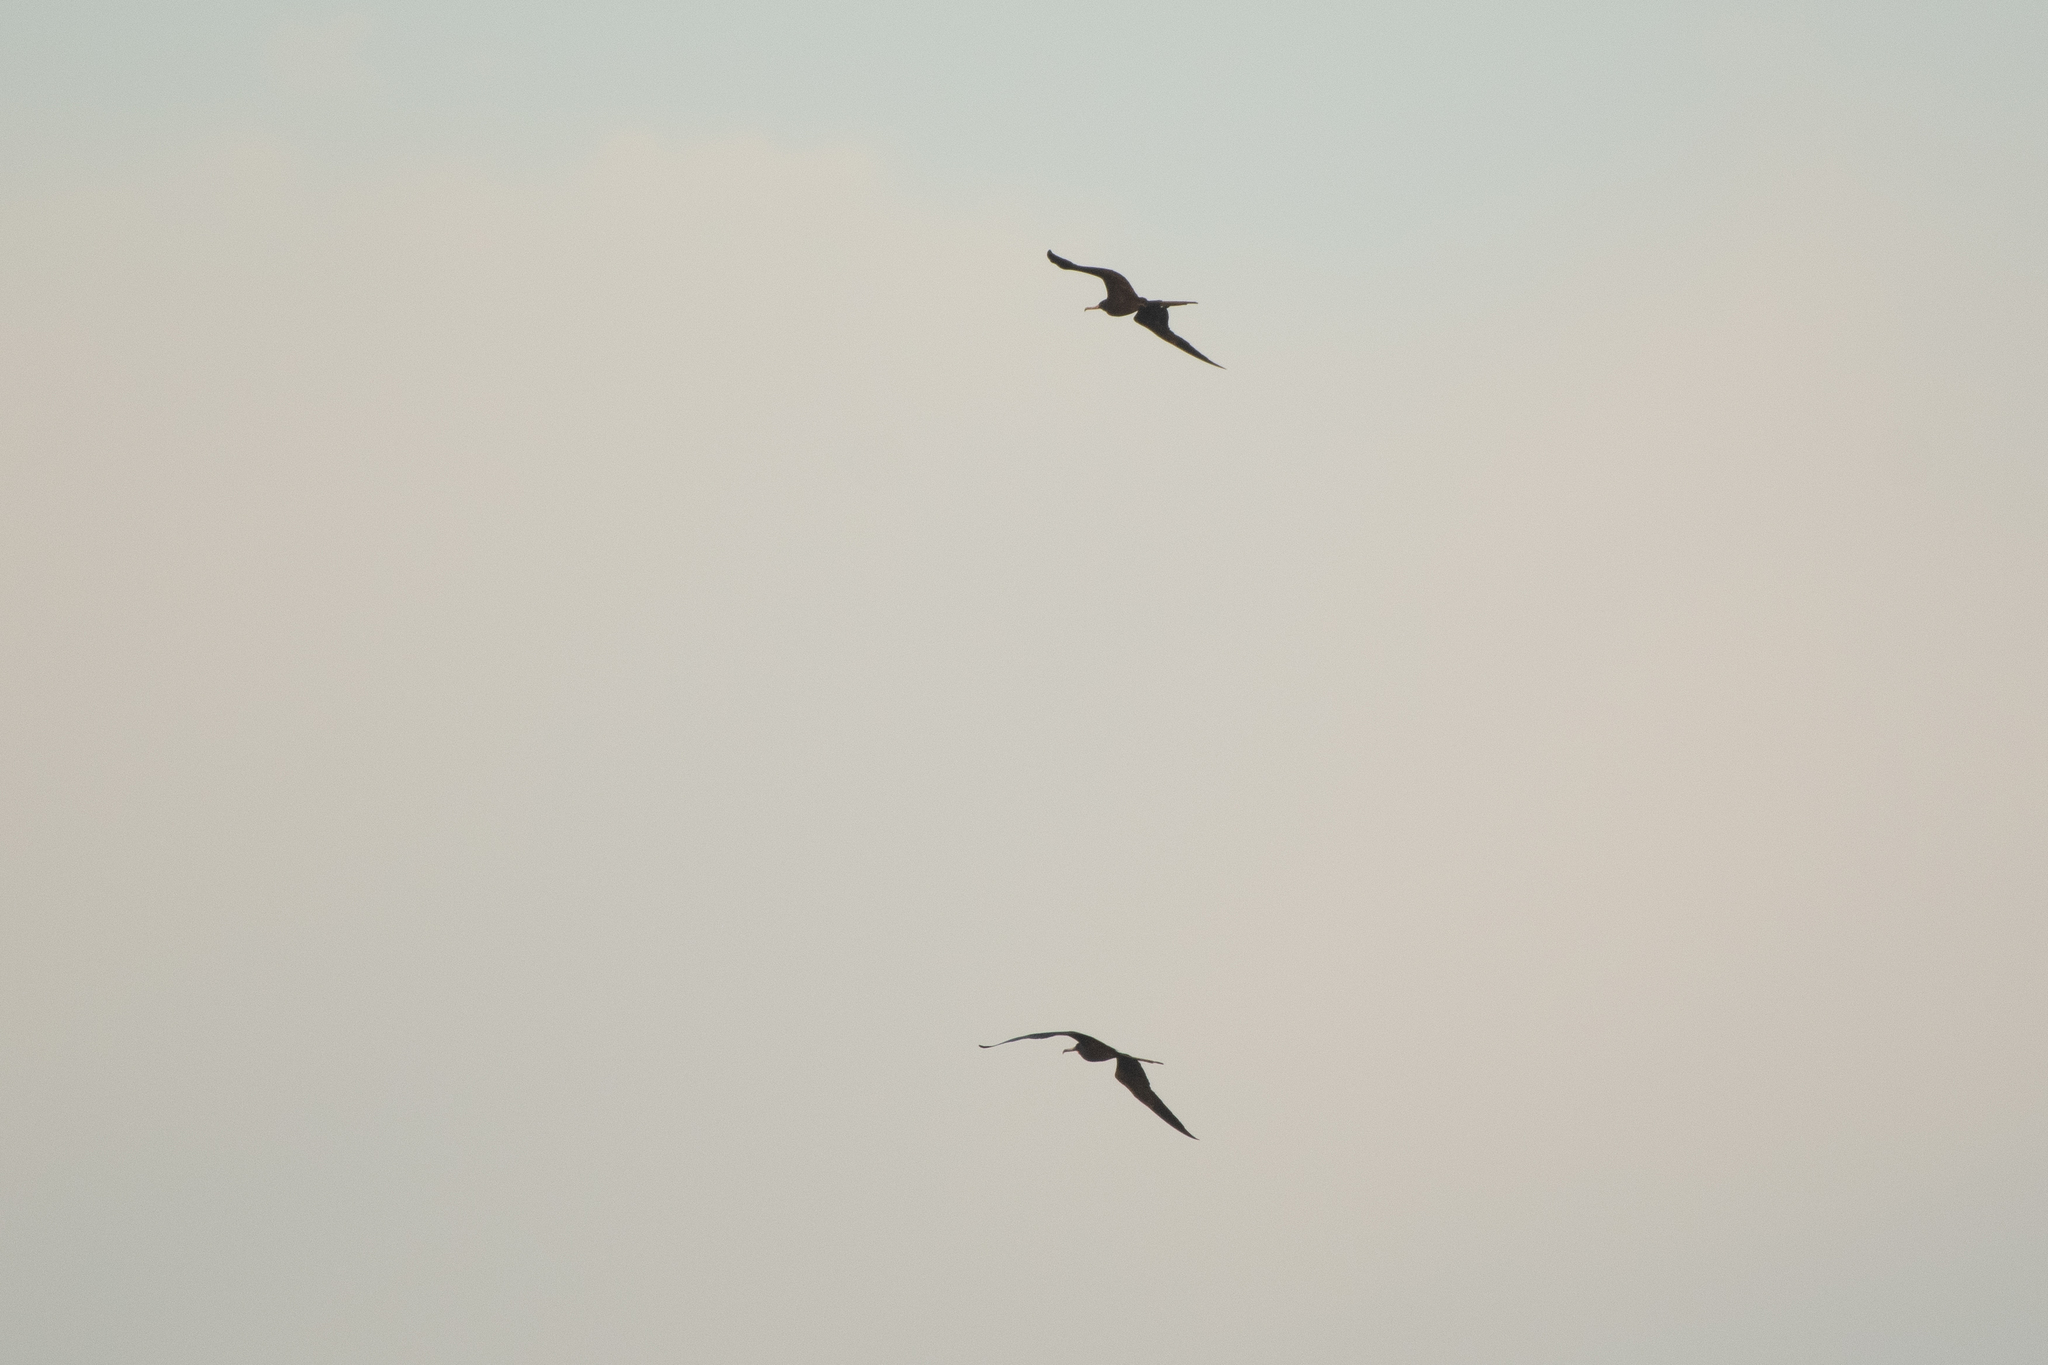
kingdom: Animalia
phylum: Chordata
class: Aves
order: Suliformes
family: Fregatidae
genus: Fregata
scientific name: Fregata magnificens
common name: Magnificent frigatebird
